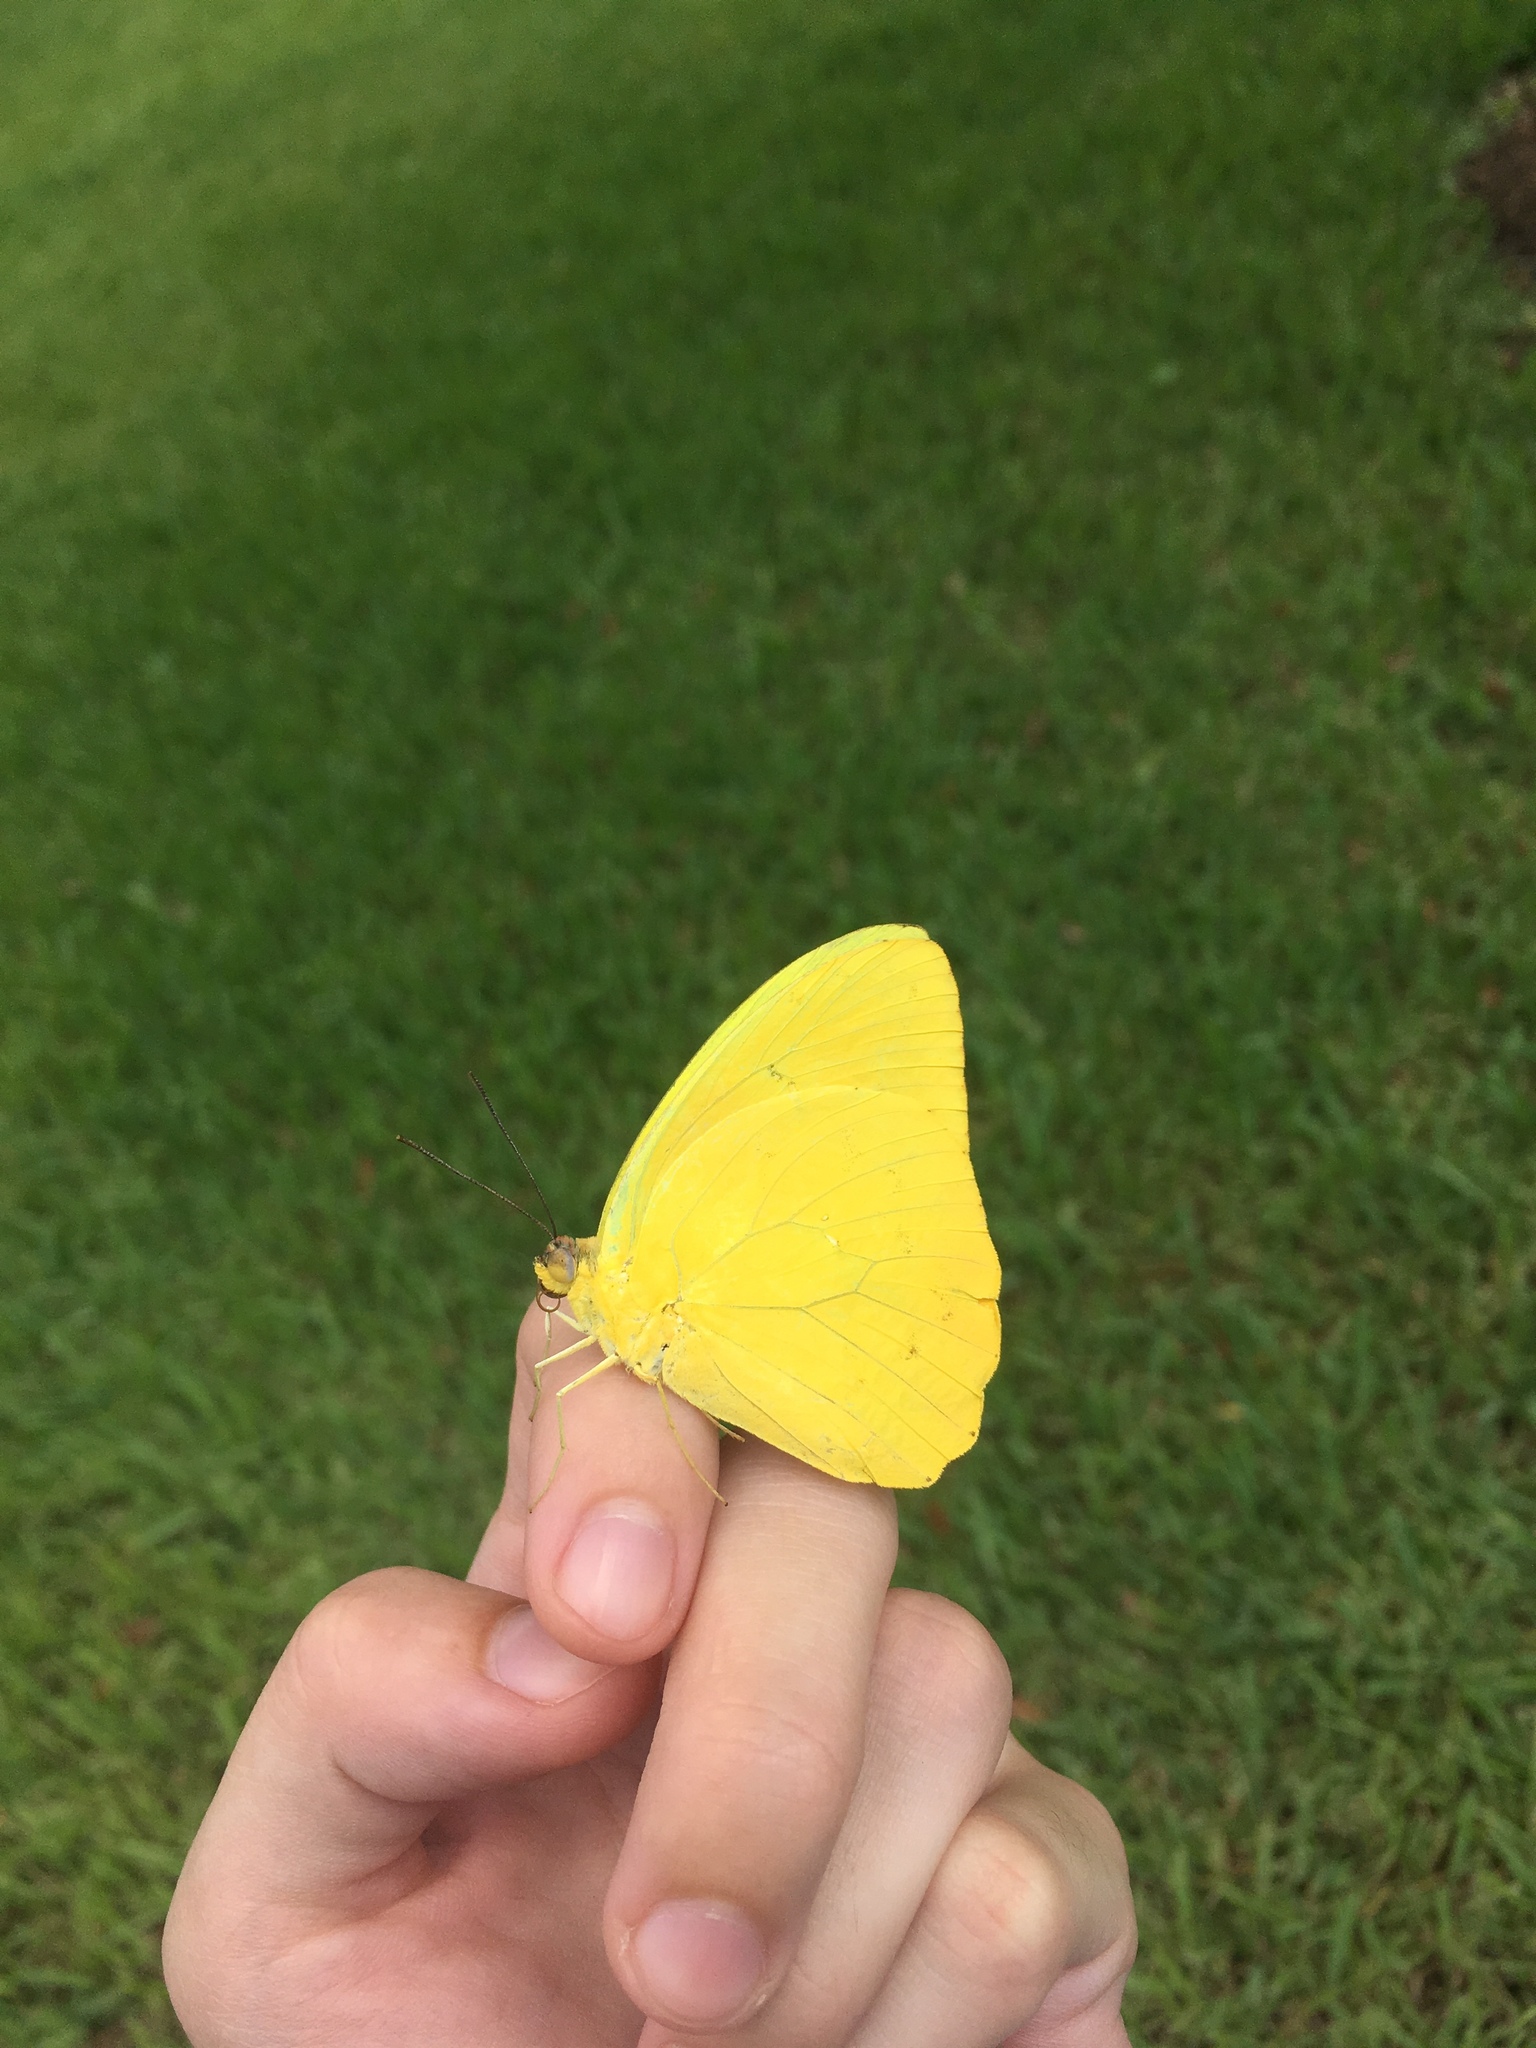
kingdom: Animalia
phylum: Arthropoda
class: Insecta
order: Lepidoptera
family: Pieridae
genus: Phoebis
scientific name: Phoebis philea
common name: Orange-barred giant sulphur
